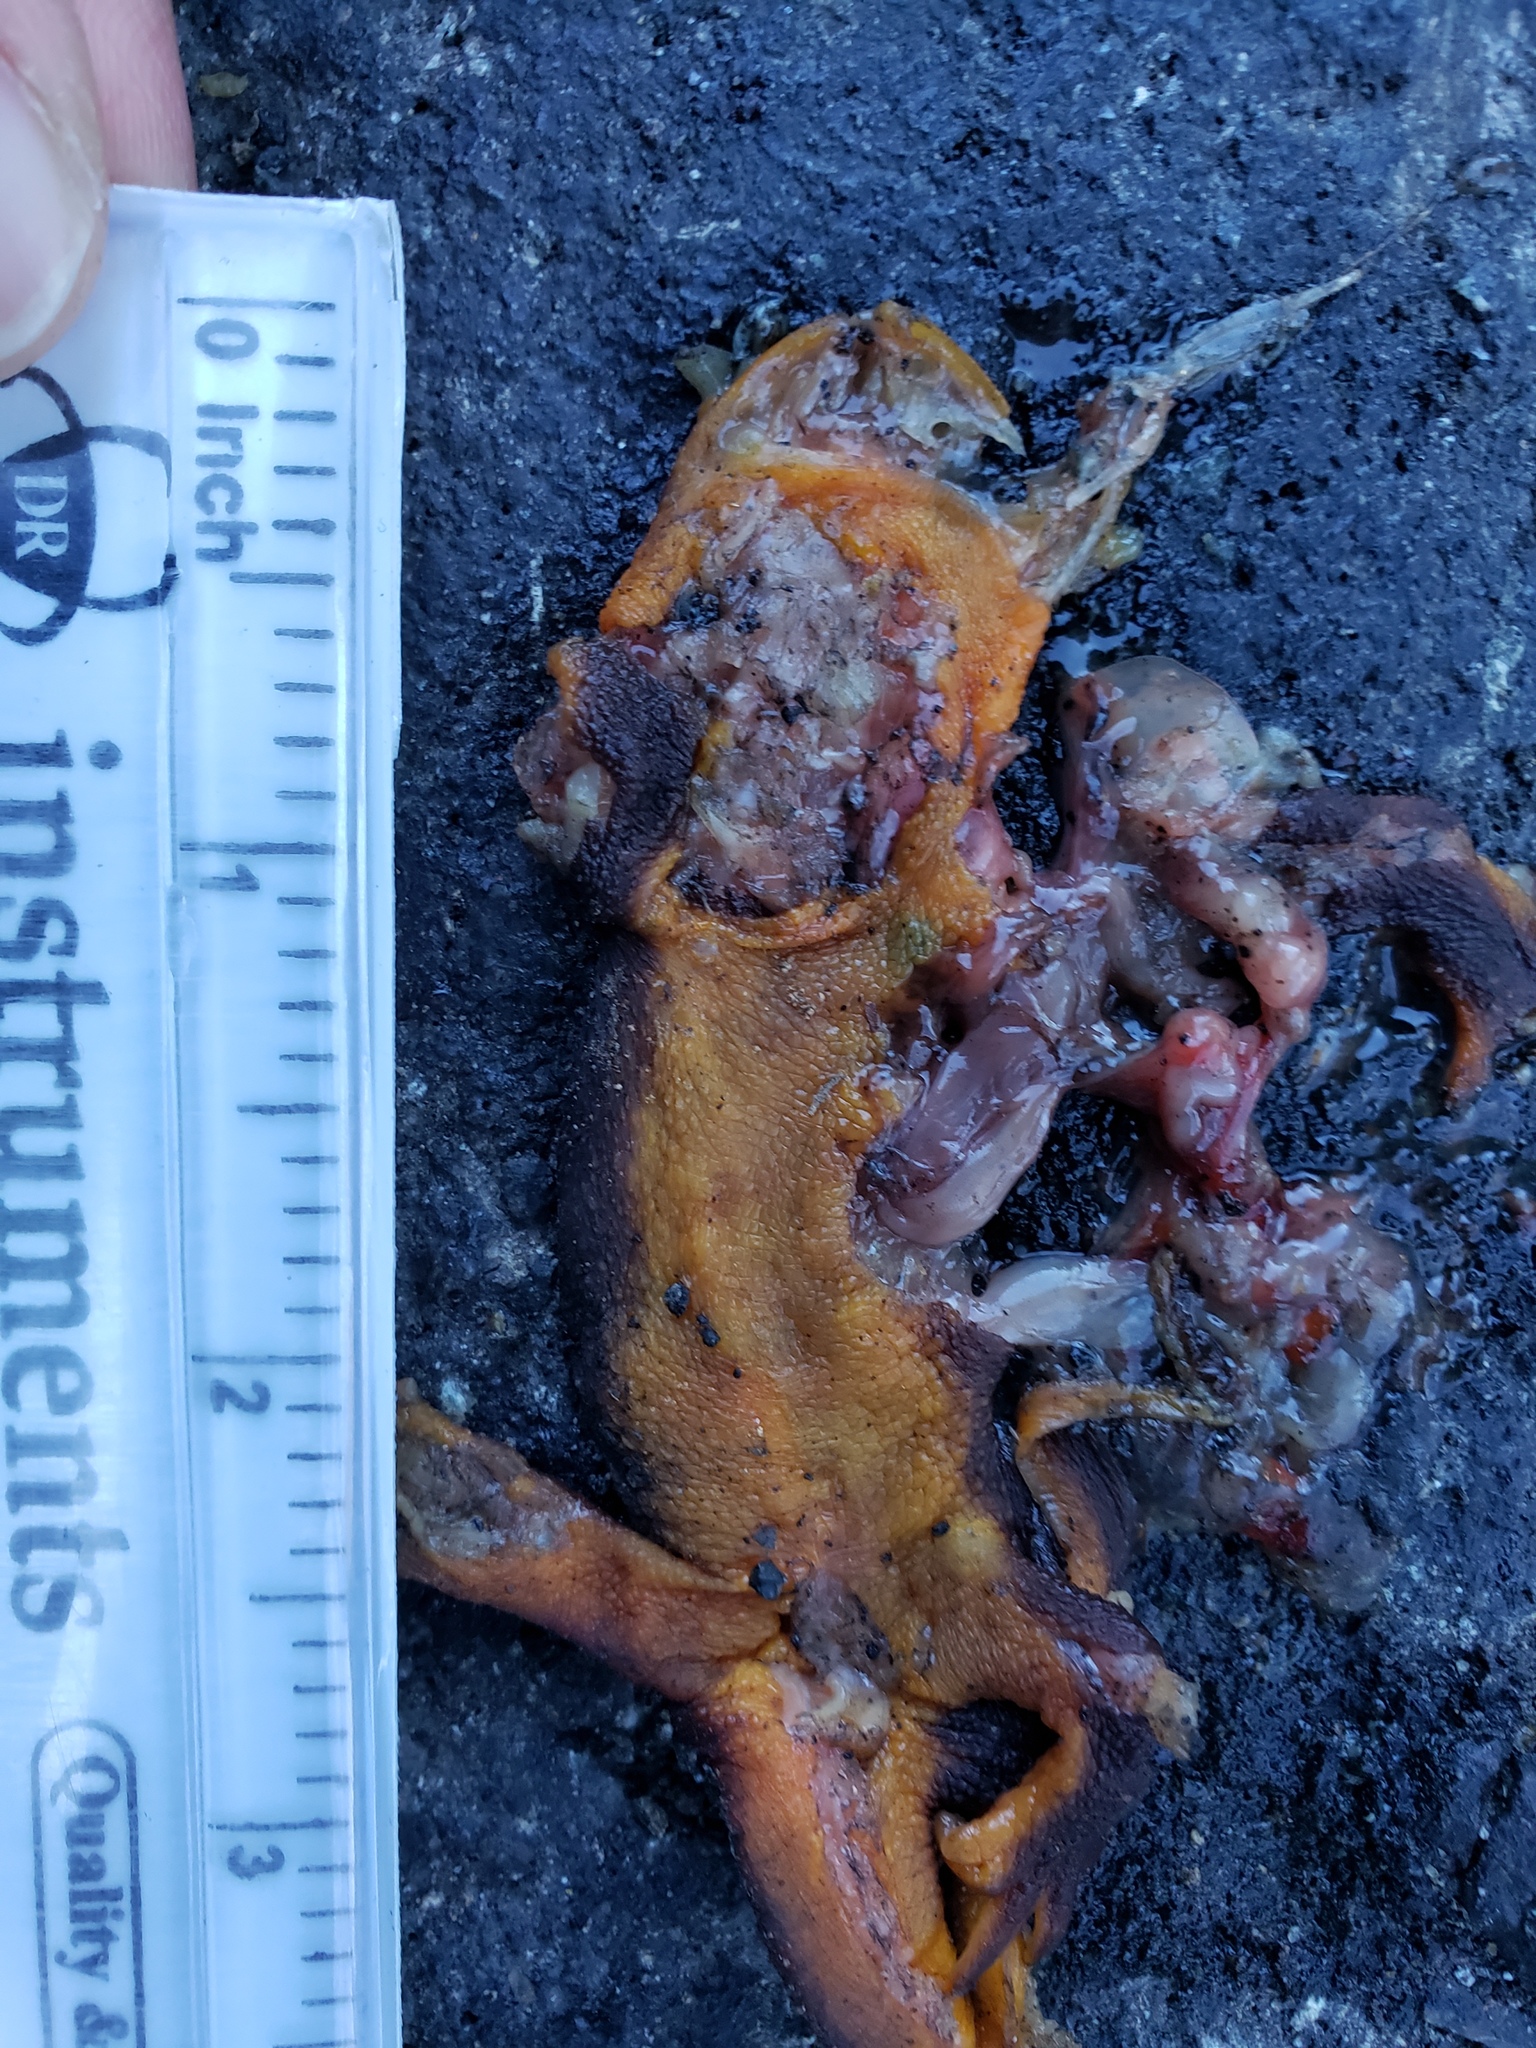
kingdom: Animalia
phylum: Chordata
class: Amphibia
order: Caudata
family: Salamandridae
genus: Taricha
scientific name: Taricha
